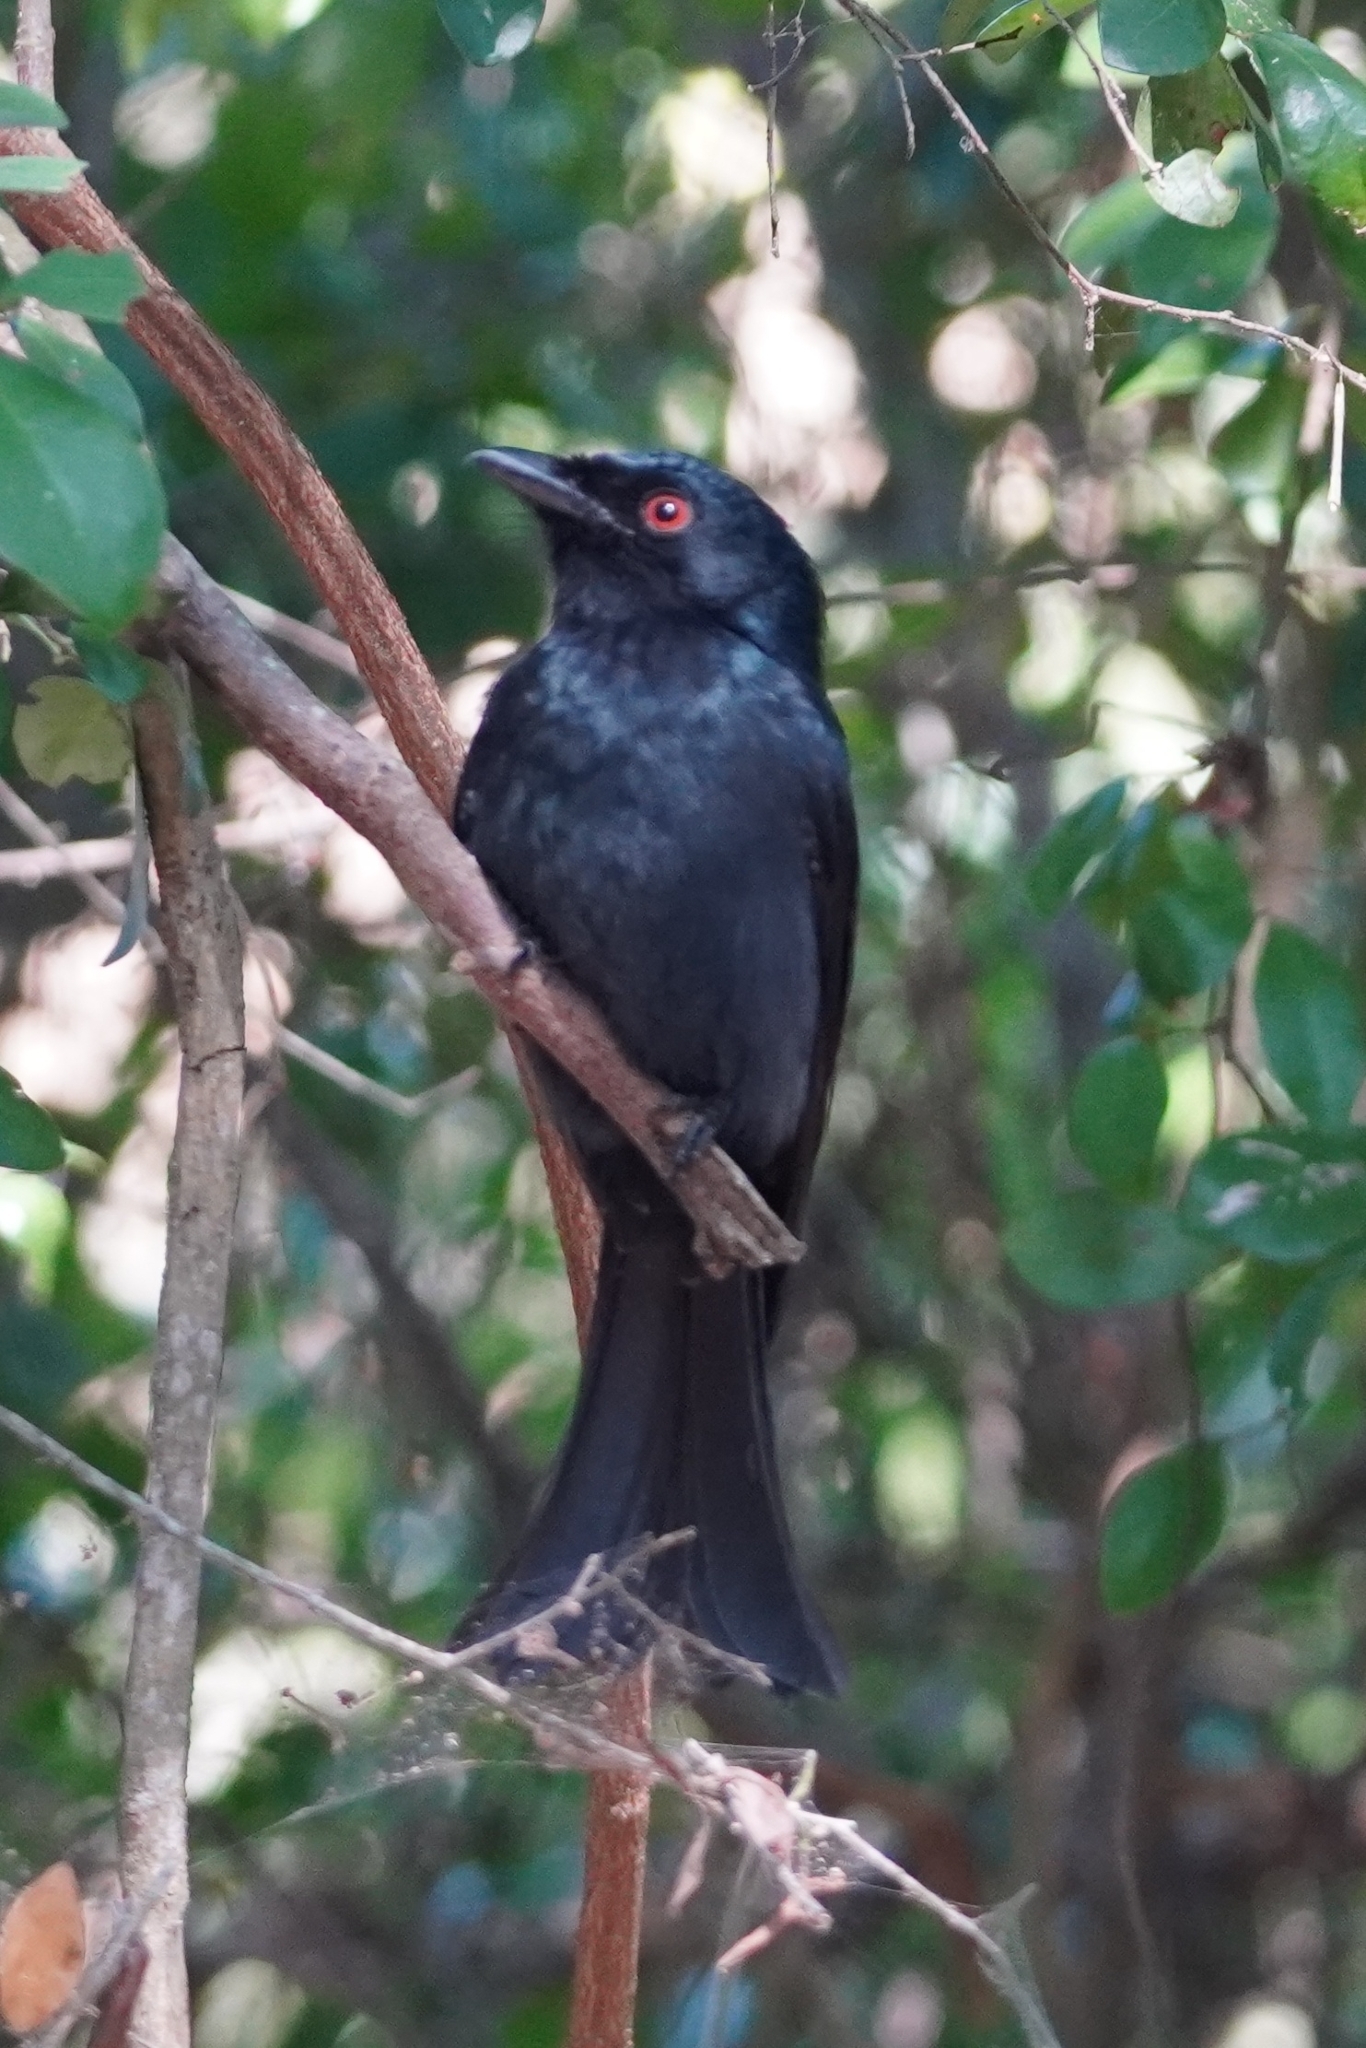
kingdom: Animalia
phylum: Chordata
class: Aves
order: Passeriformes
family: Dicruridae
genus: Dicrurus
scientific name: Dicrurus ludwigii
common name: Square-tailed drongo
